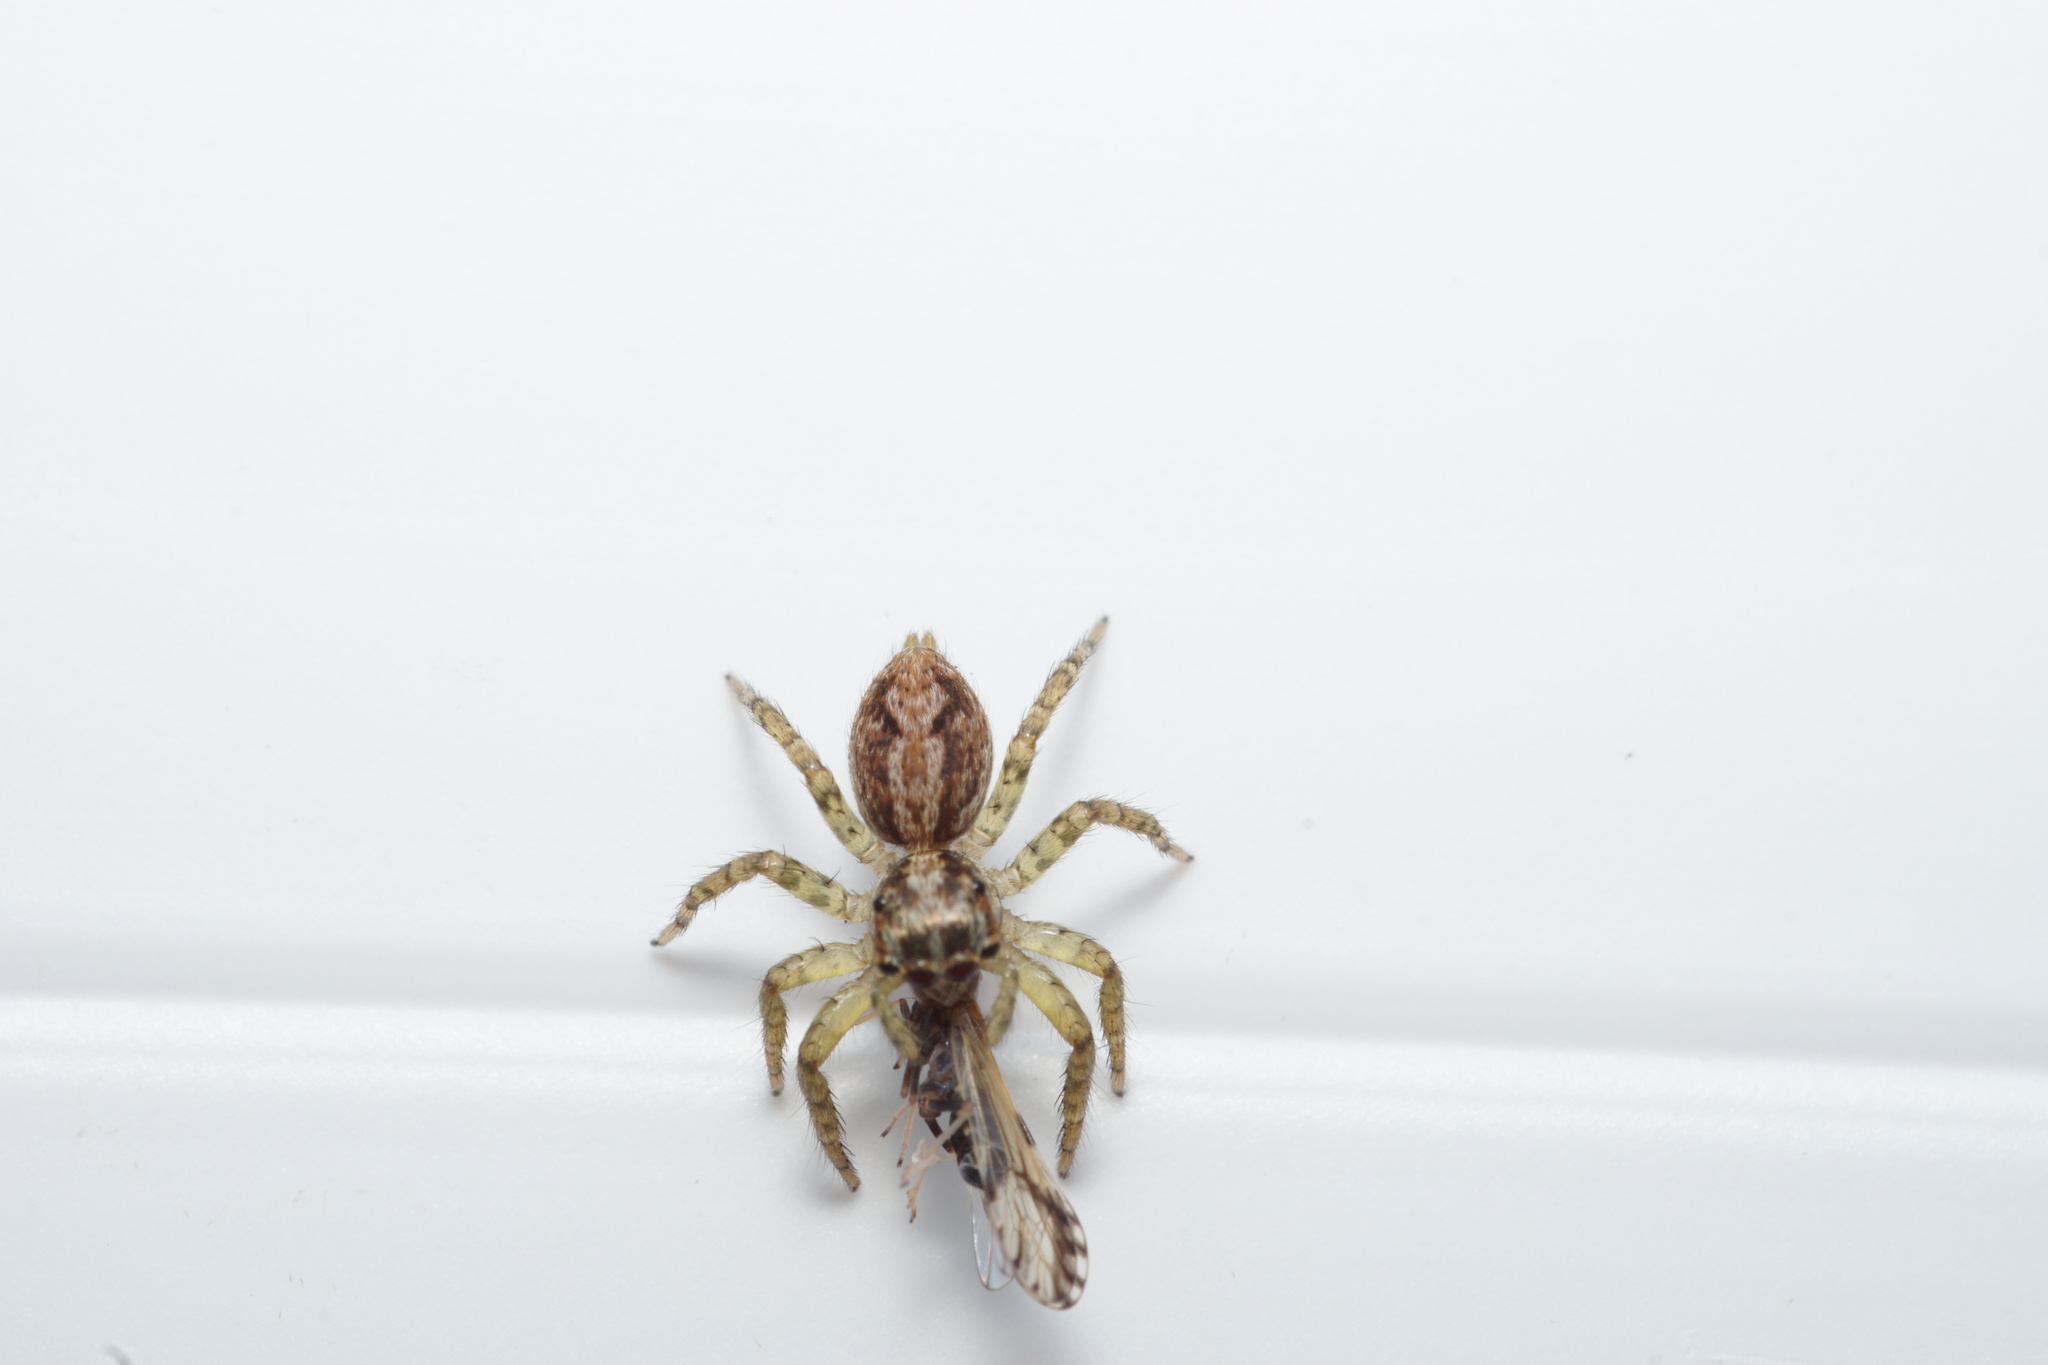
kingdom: Animalia
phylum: Arthropoda
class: Arachnida
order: Araneae
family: Salticidae
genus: Asaphobelis
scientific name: Asaphobelis physonychus
